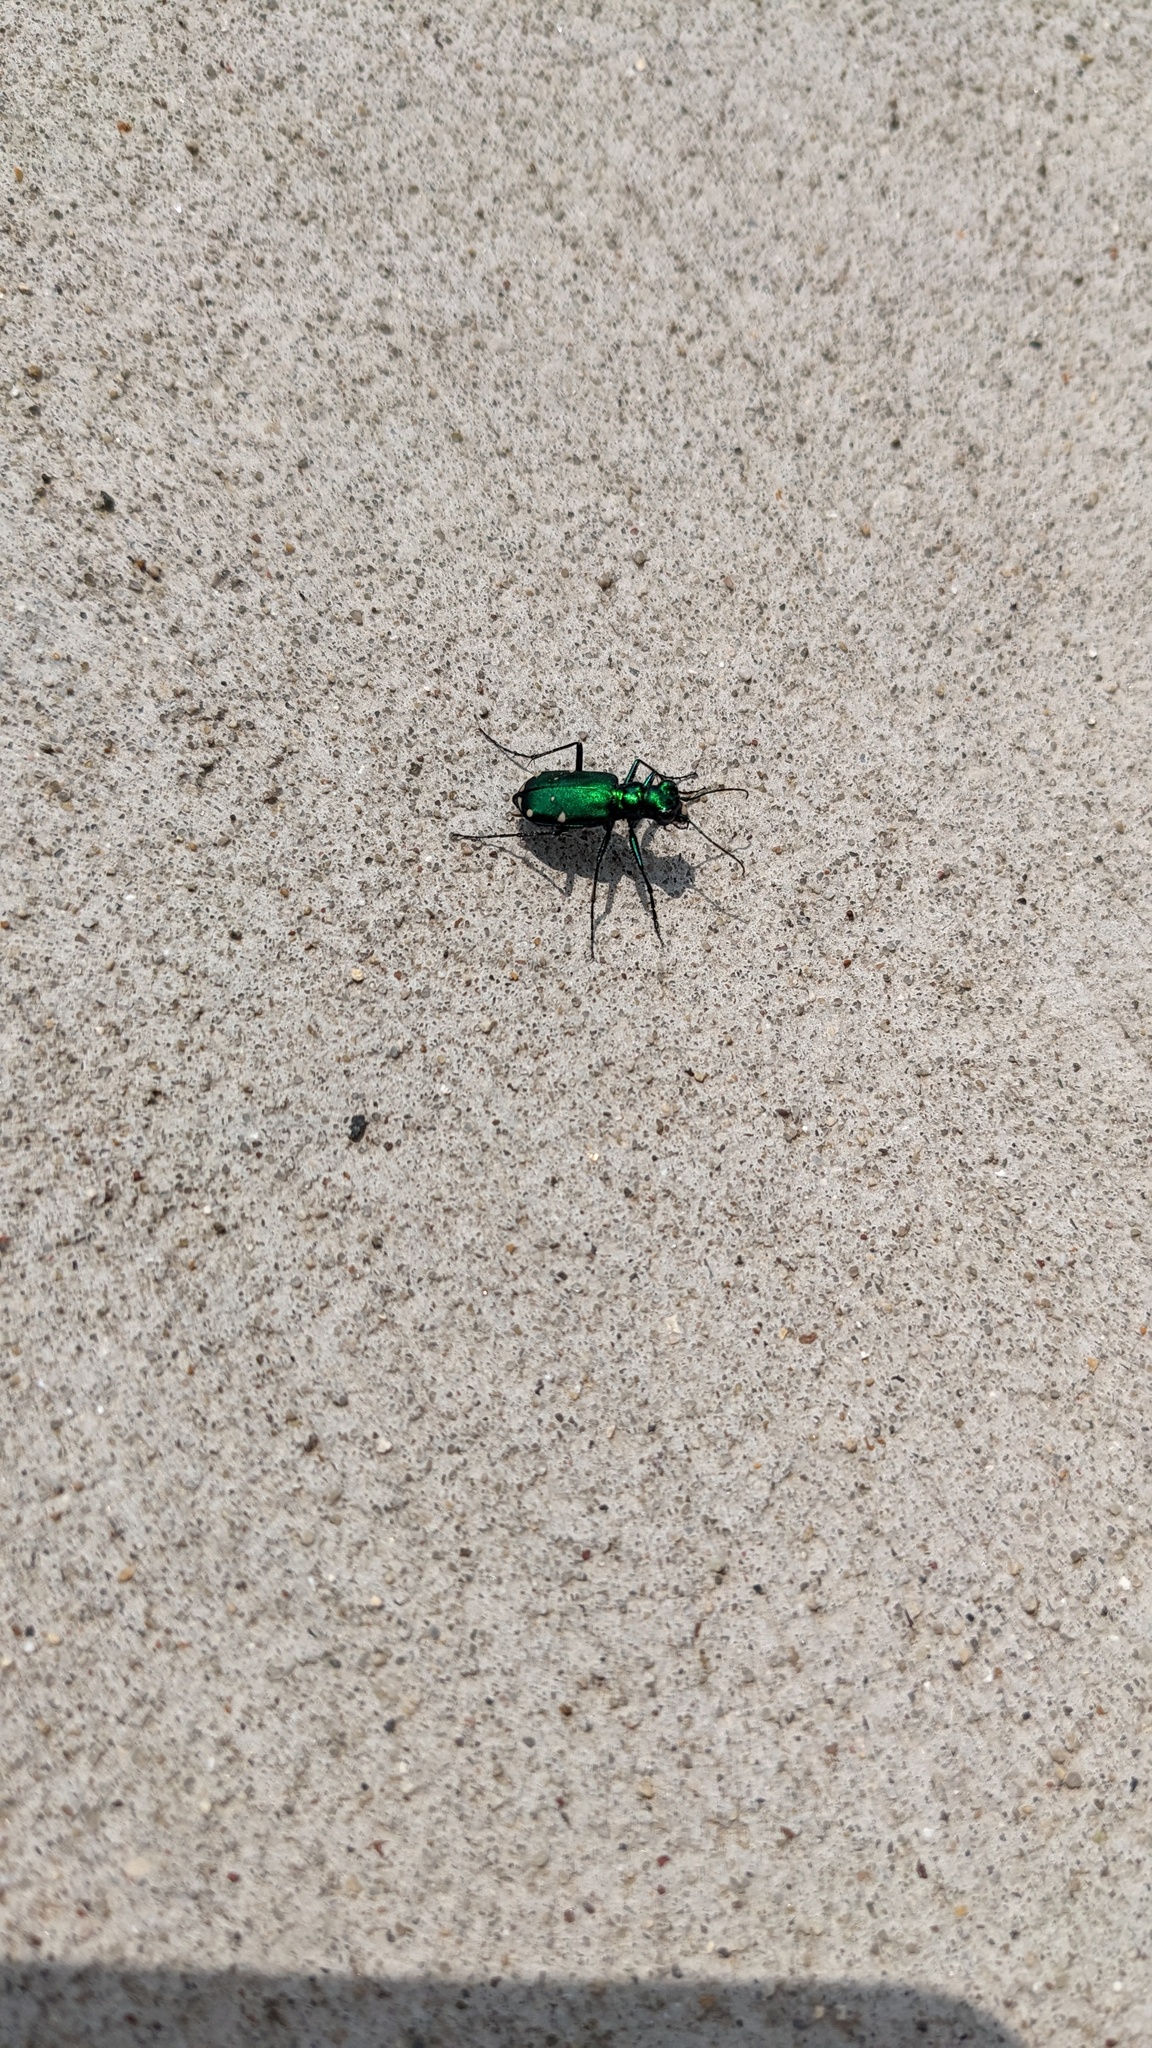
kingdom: Animalia
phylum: Arthropoda
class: Insecta
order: Coleoptera
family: Carabidae
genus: Cicindela
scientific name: Cicindela sexguttata
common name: Six-spotted tiger beetle
